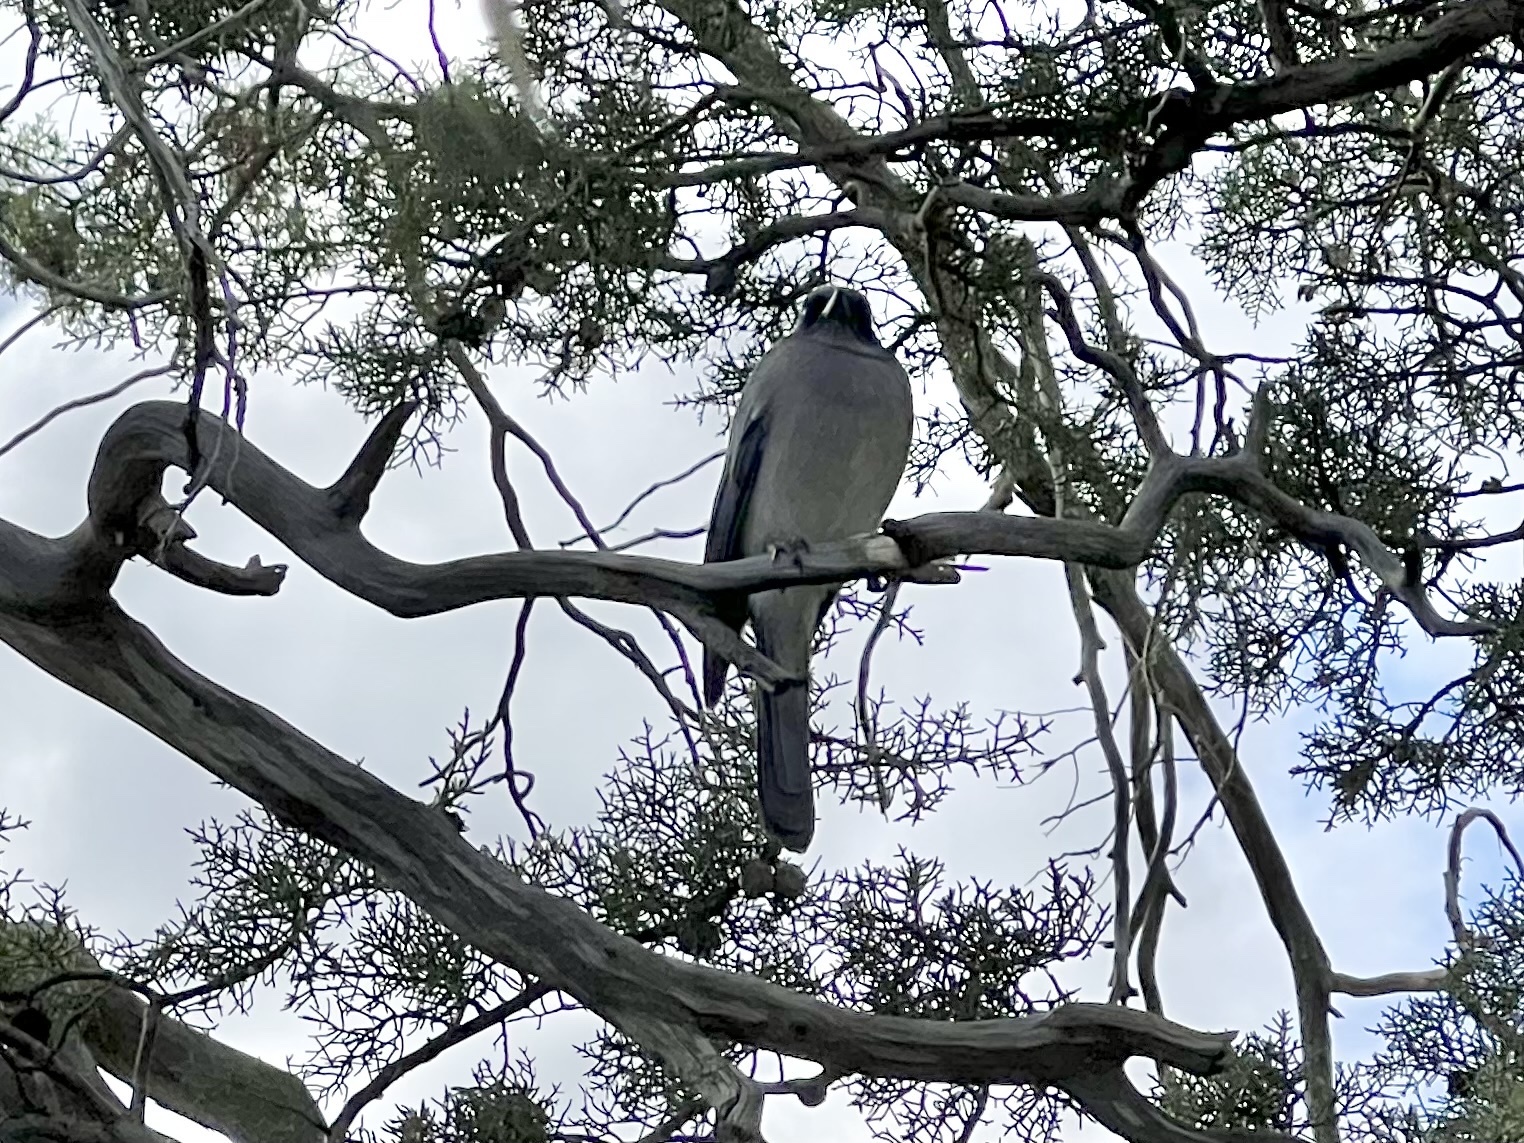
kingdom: Animalia
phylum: Chordata
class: Aves
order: Passeriformes
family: Corvidae
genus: Aphelocoma
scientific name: Aphelocoma wollweberi
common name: Mexican jay
